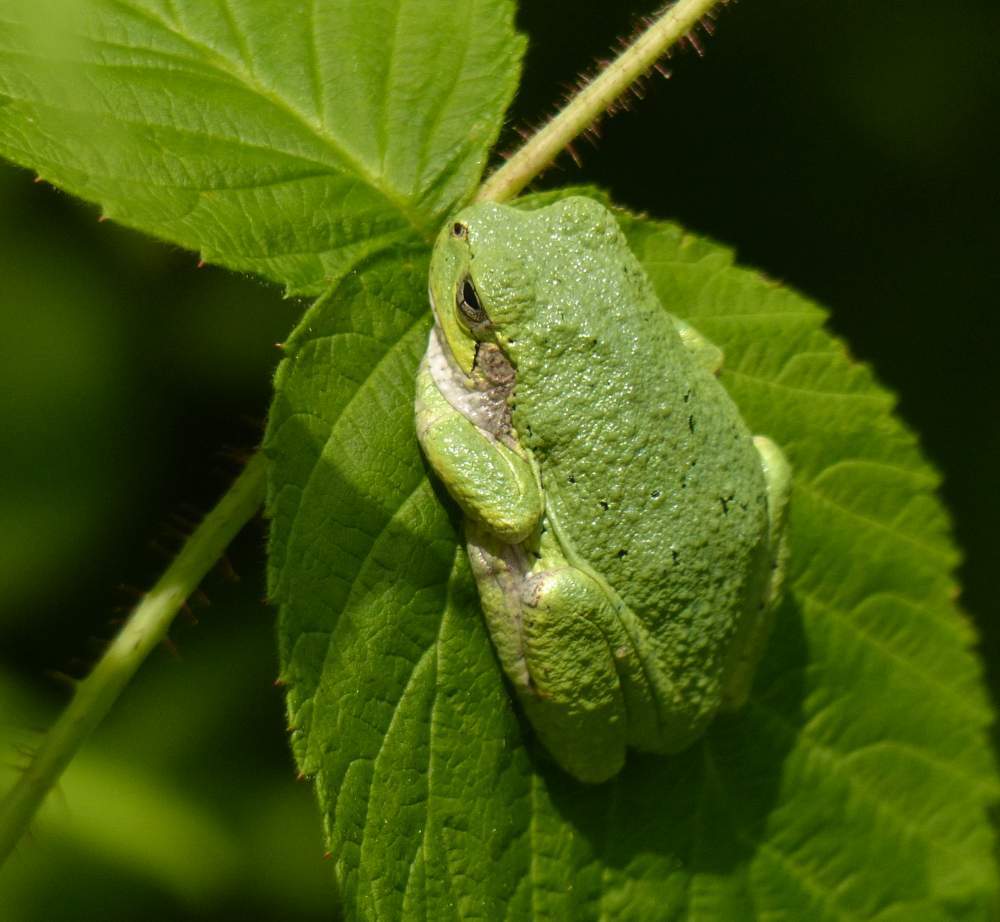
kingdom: Animalia
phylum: Chordata
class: Amphibia
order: Anura
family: Hylidae
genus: Dryophytes
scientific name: Dryophytes versicolor
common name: Gray treefrog
